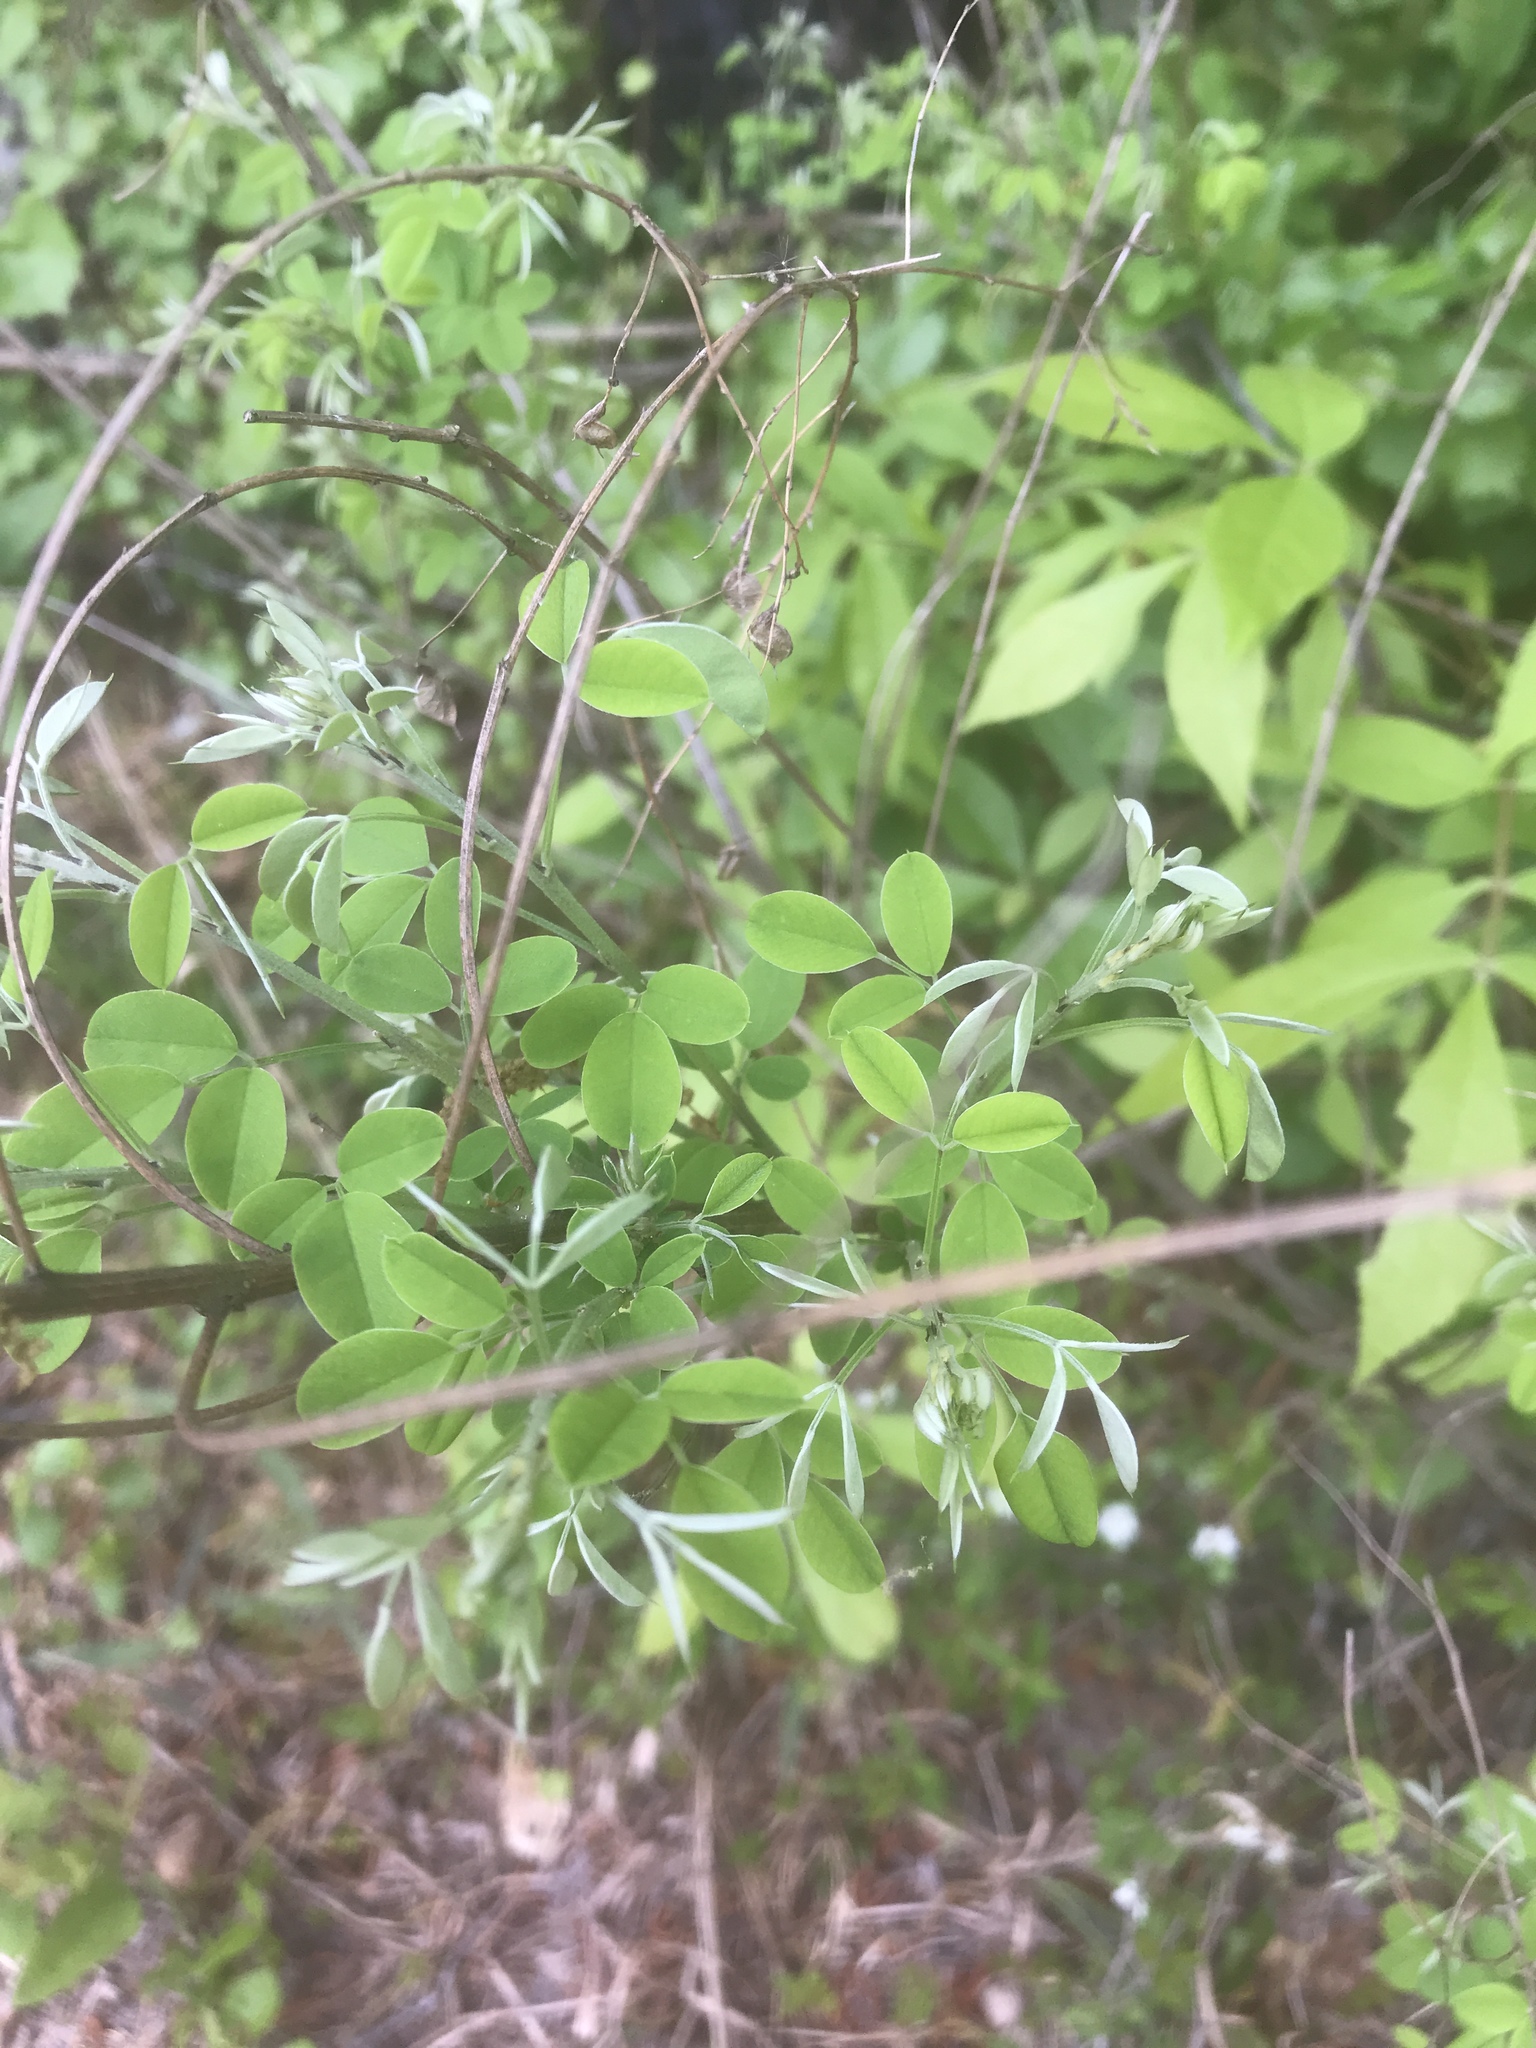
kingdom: Plantae
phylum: Tracheophyta
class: Magnoliopsida
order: Fabales
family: Fabaceae
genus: Lespedeza
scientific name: Lespedeza bicolor
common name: Shrub lespedeza
